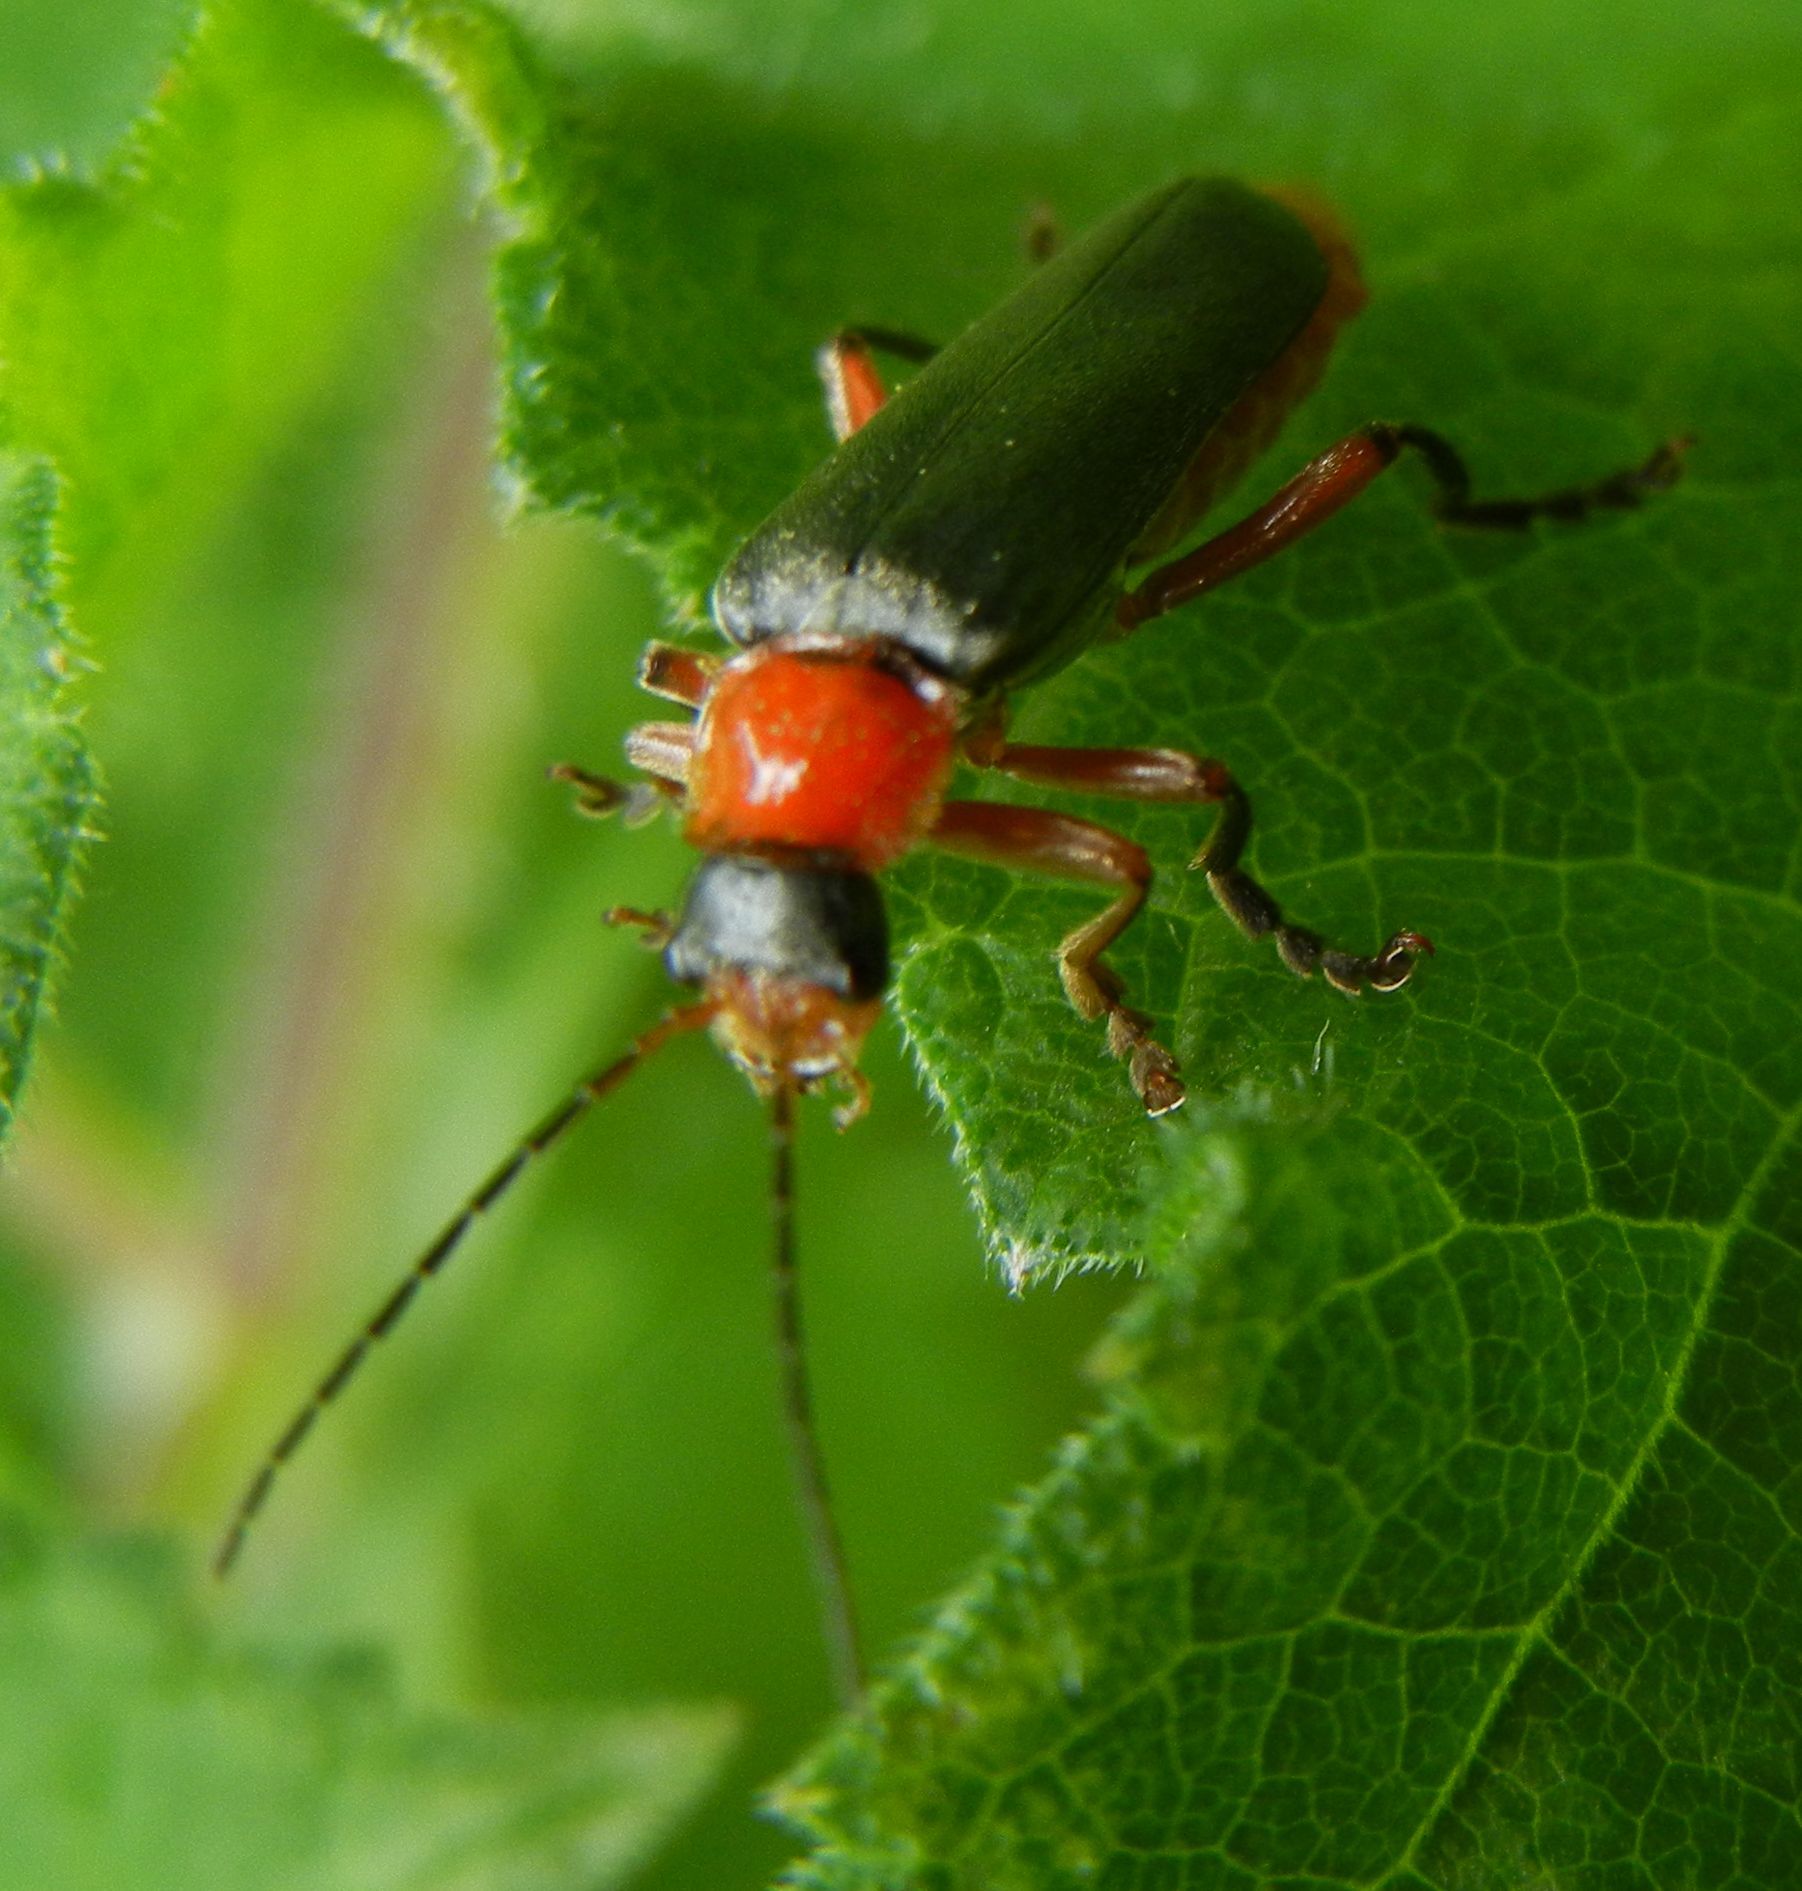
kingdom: Animalia
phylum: Arthropoda
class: Insecta
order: Coleoptera
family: Cantharidae
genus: Cantharis
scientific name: Cantharis pellucida
